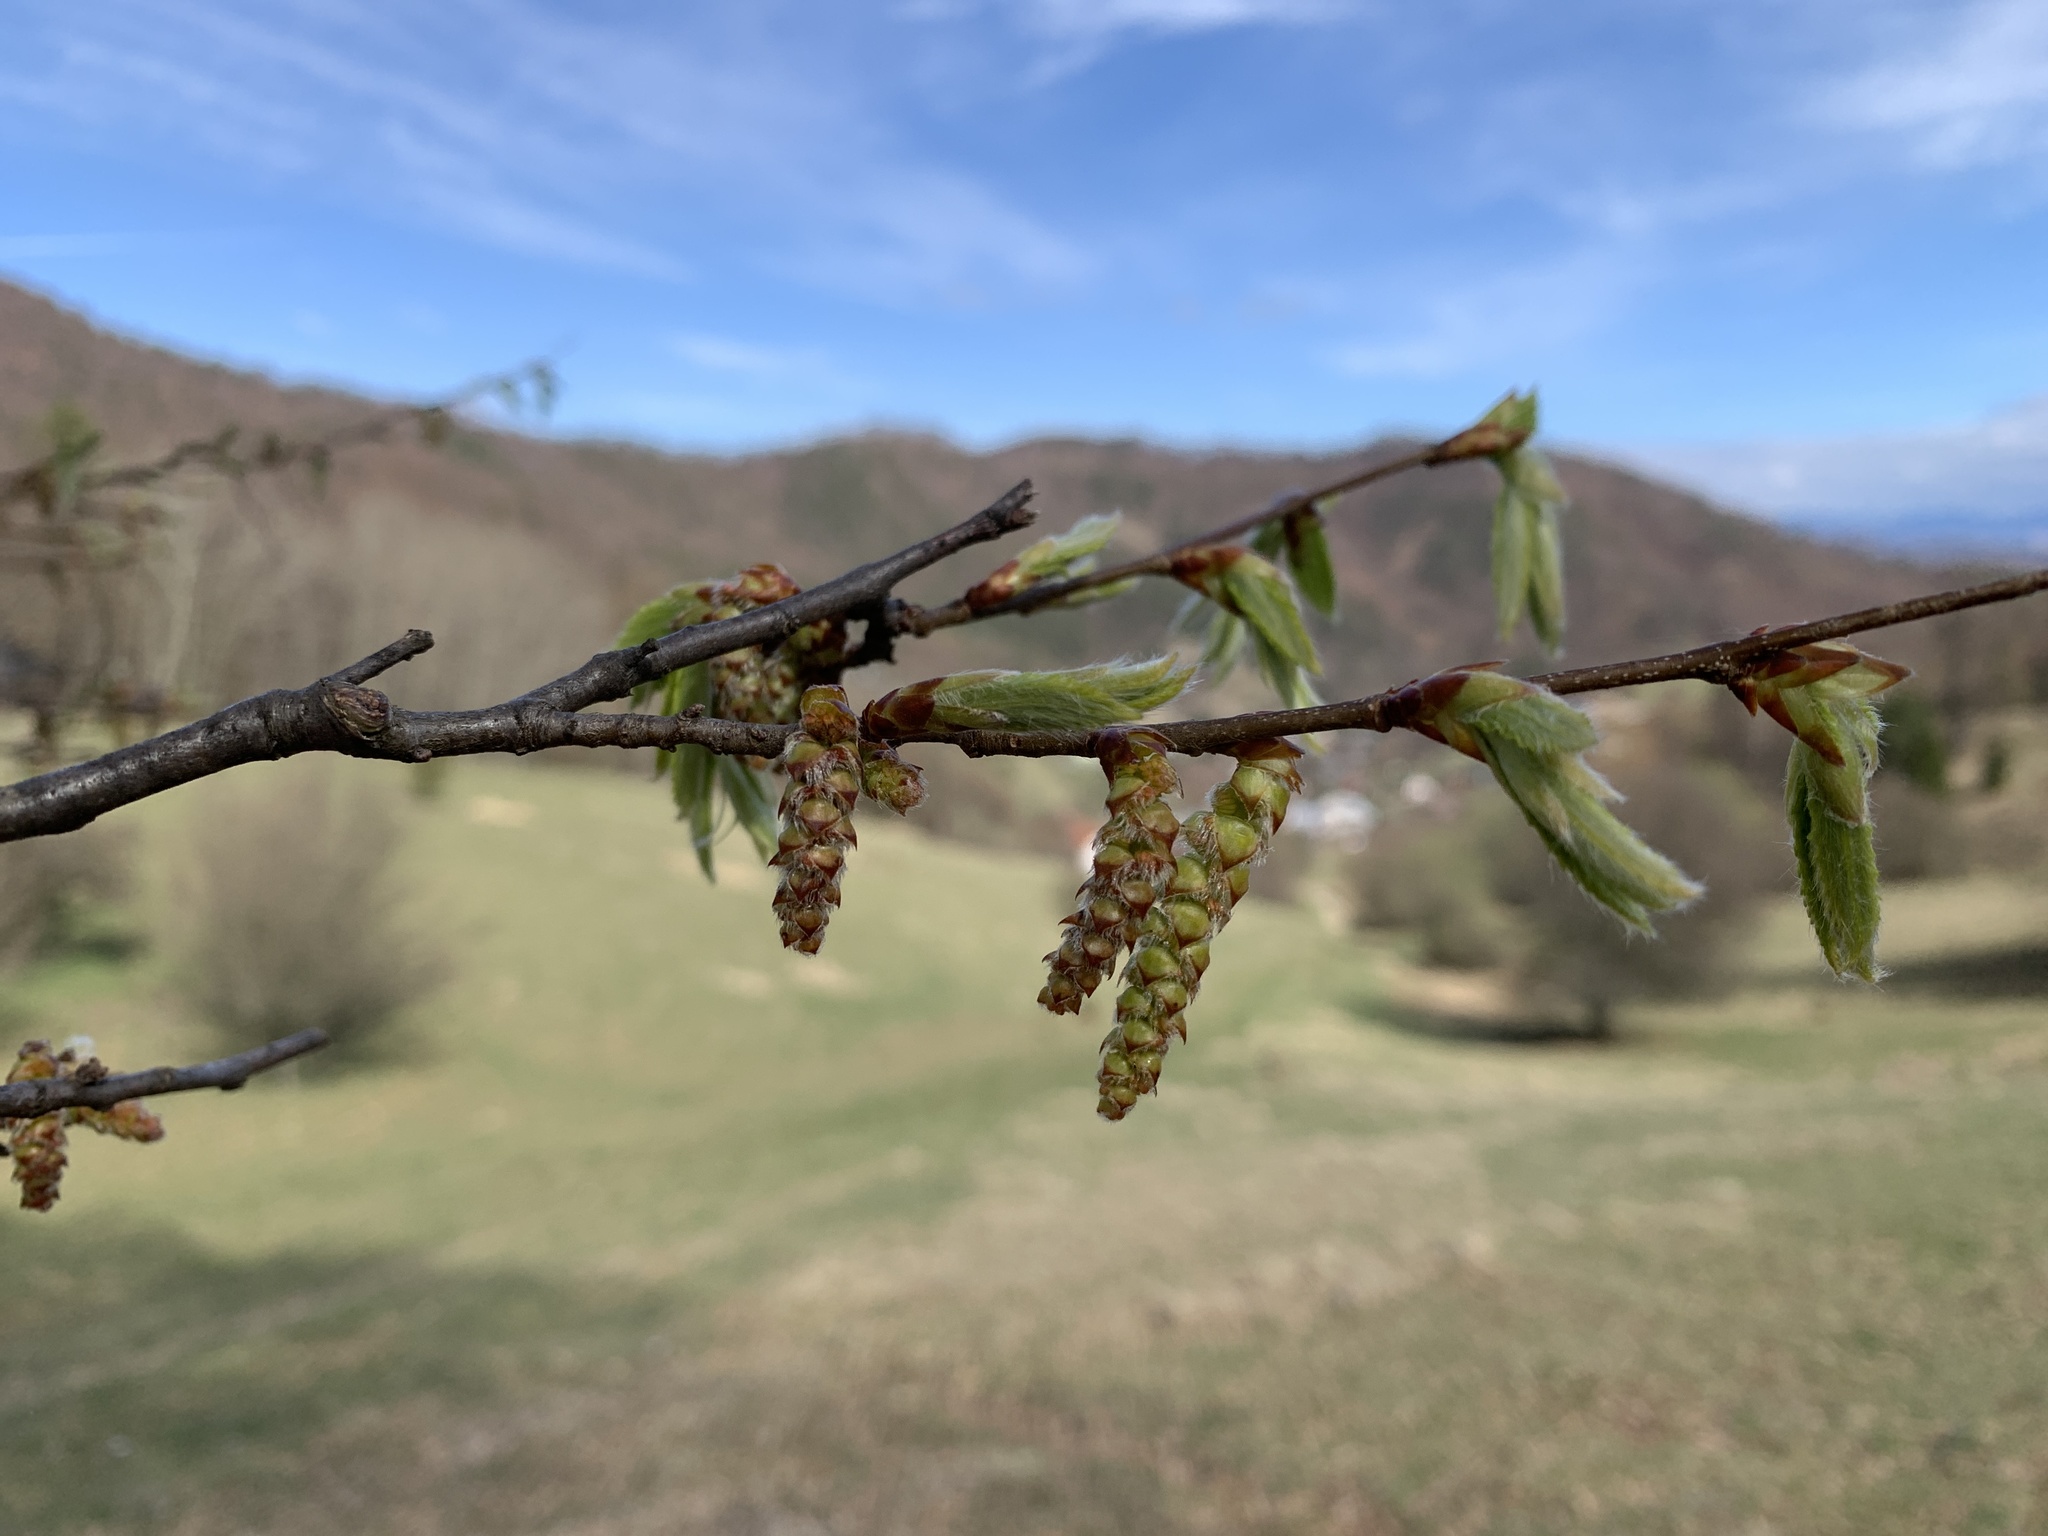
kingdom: Plantae
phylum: Tracheophyta
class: Magnoliopsida
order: Fagales
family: Betulaceae
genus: Carpinus
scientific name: Carpinus betulus
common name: Hornbeam
